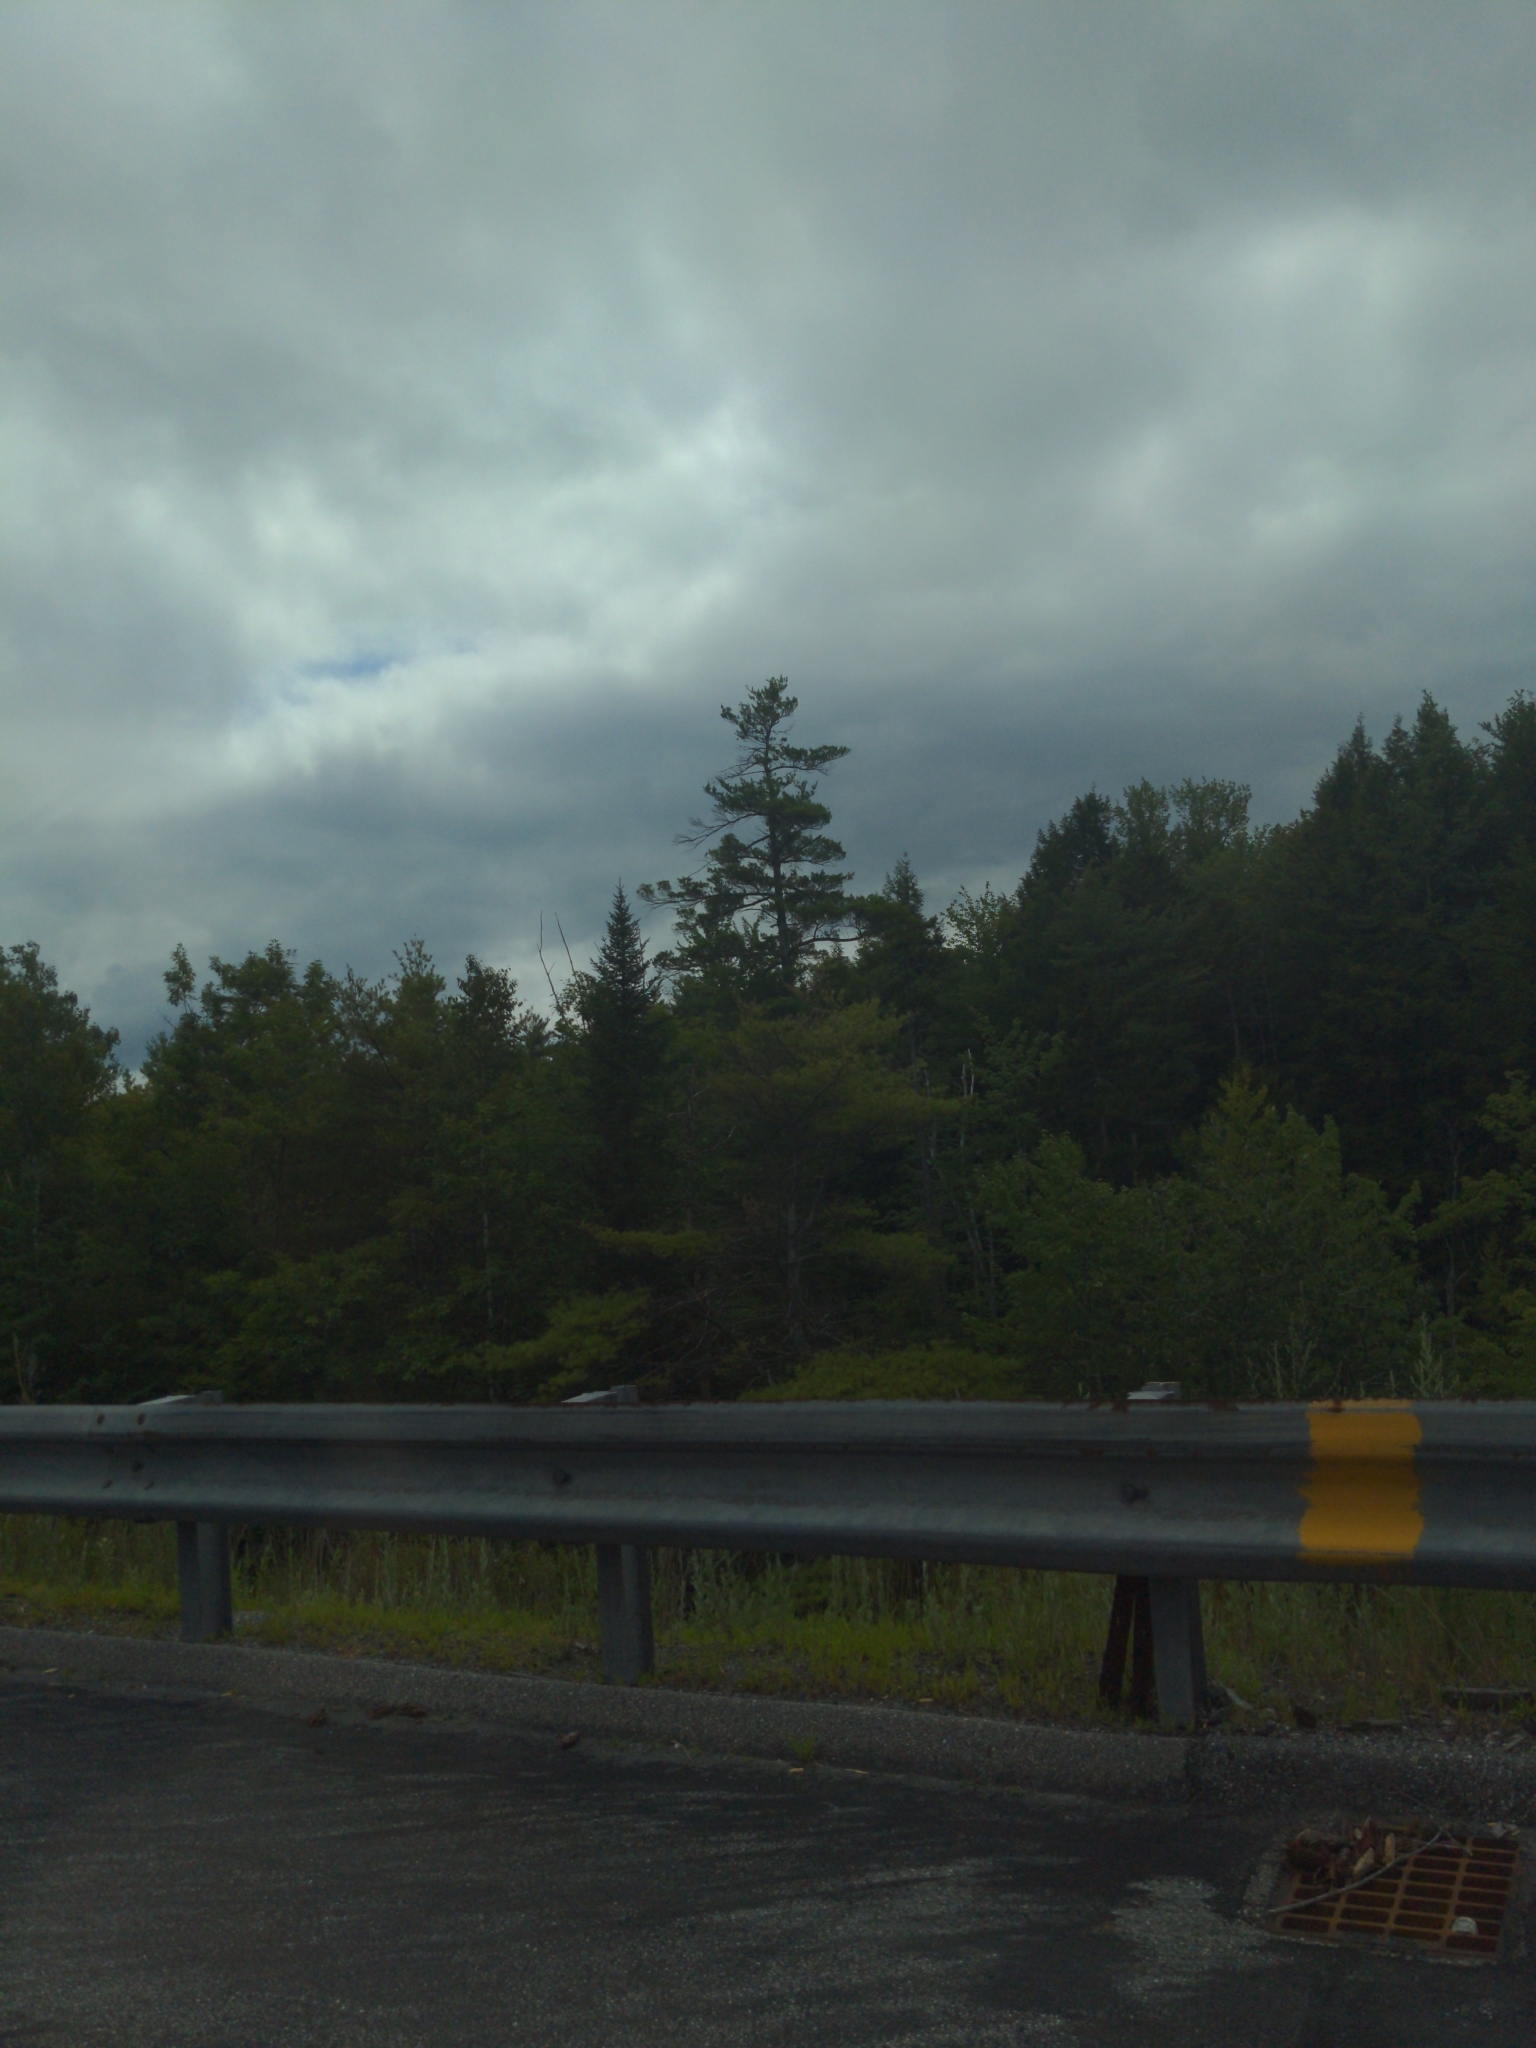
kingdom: Plantae
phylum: Tracheophyta
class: Pinopsida
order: Pinales
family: Pinaceae
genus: Pinus
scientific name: Pinus strobus
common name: Weymouth pine
